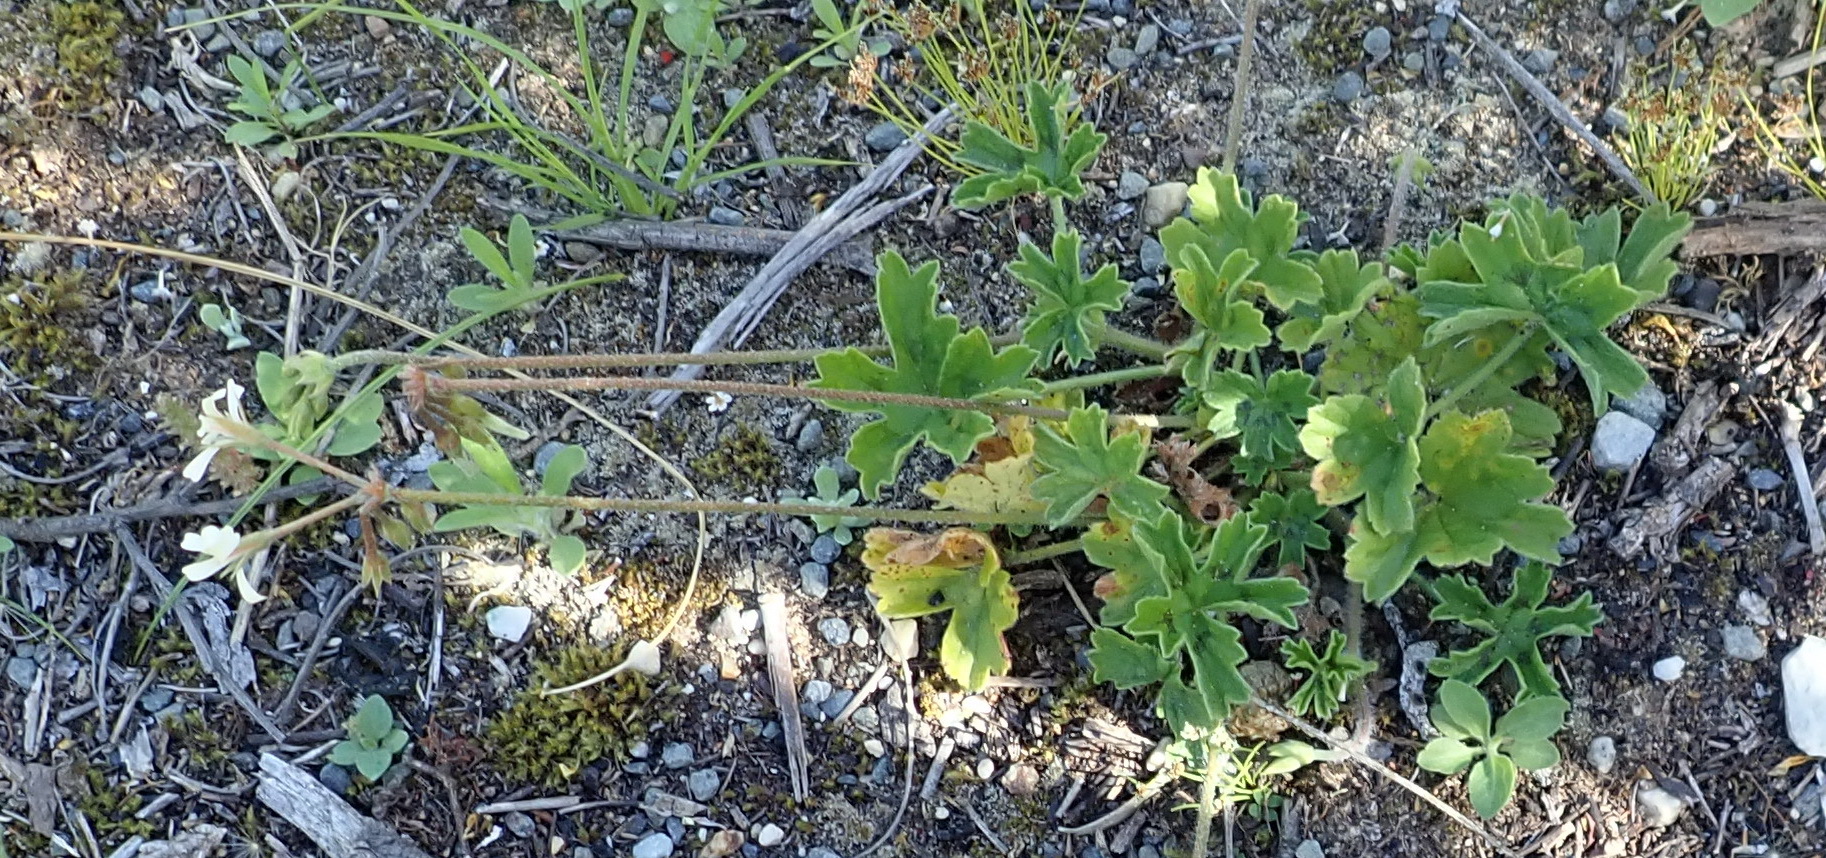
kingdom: Plantae
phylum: Tracheophyta
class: Magnoliopsida
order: Geraniales
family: Geraniaceae
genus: Pelargonium
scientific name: Pelargonium alchemilloides
